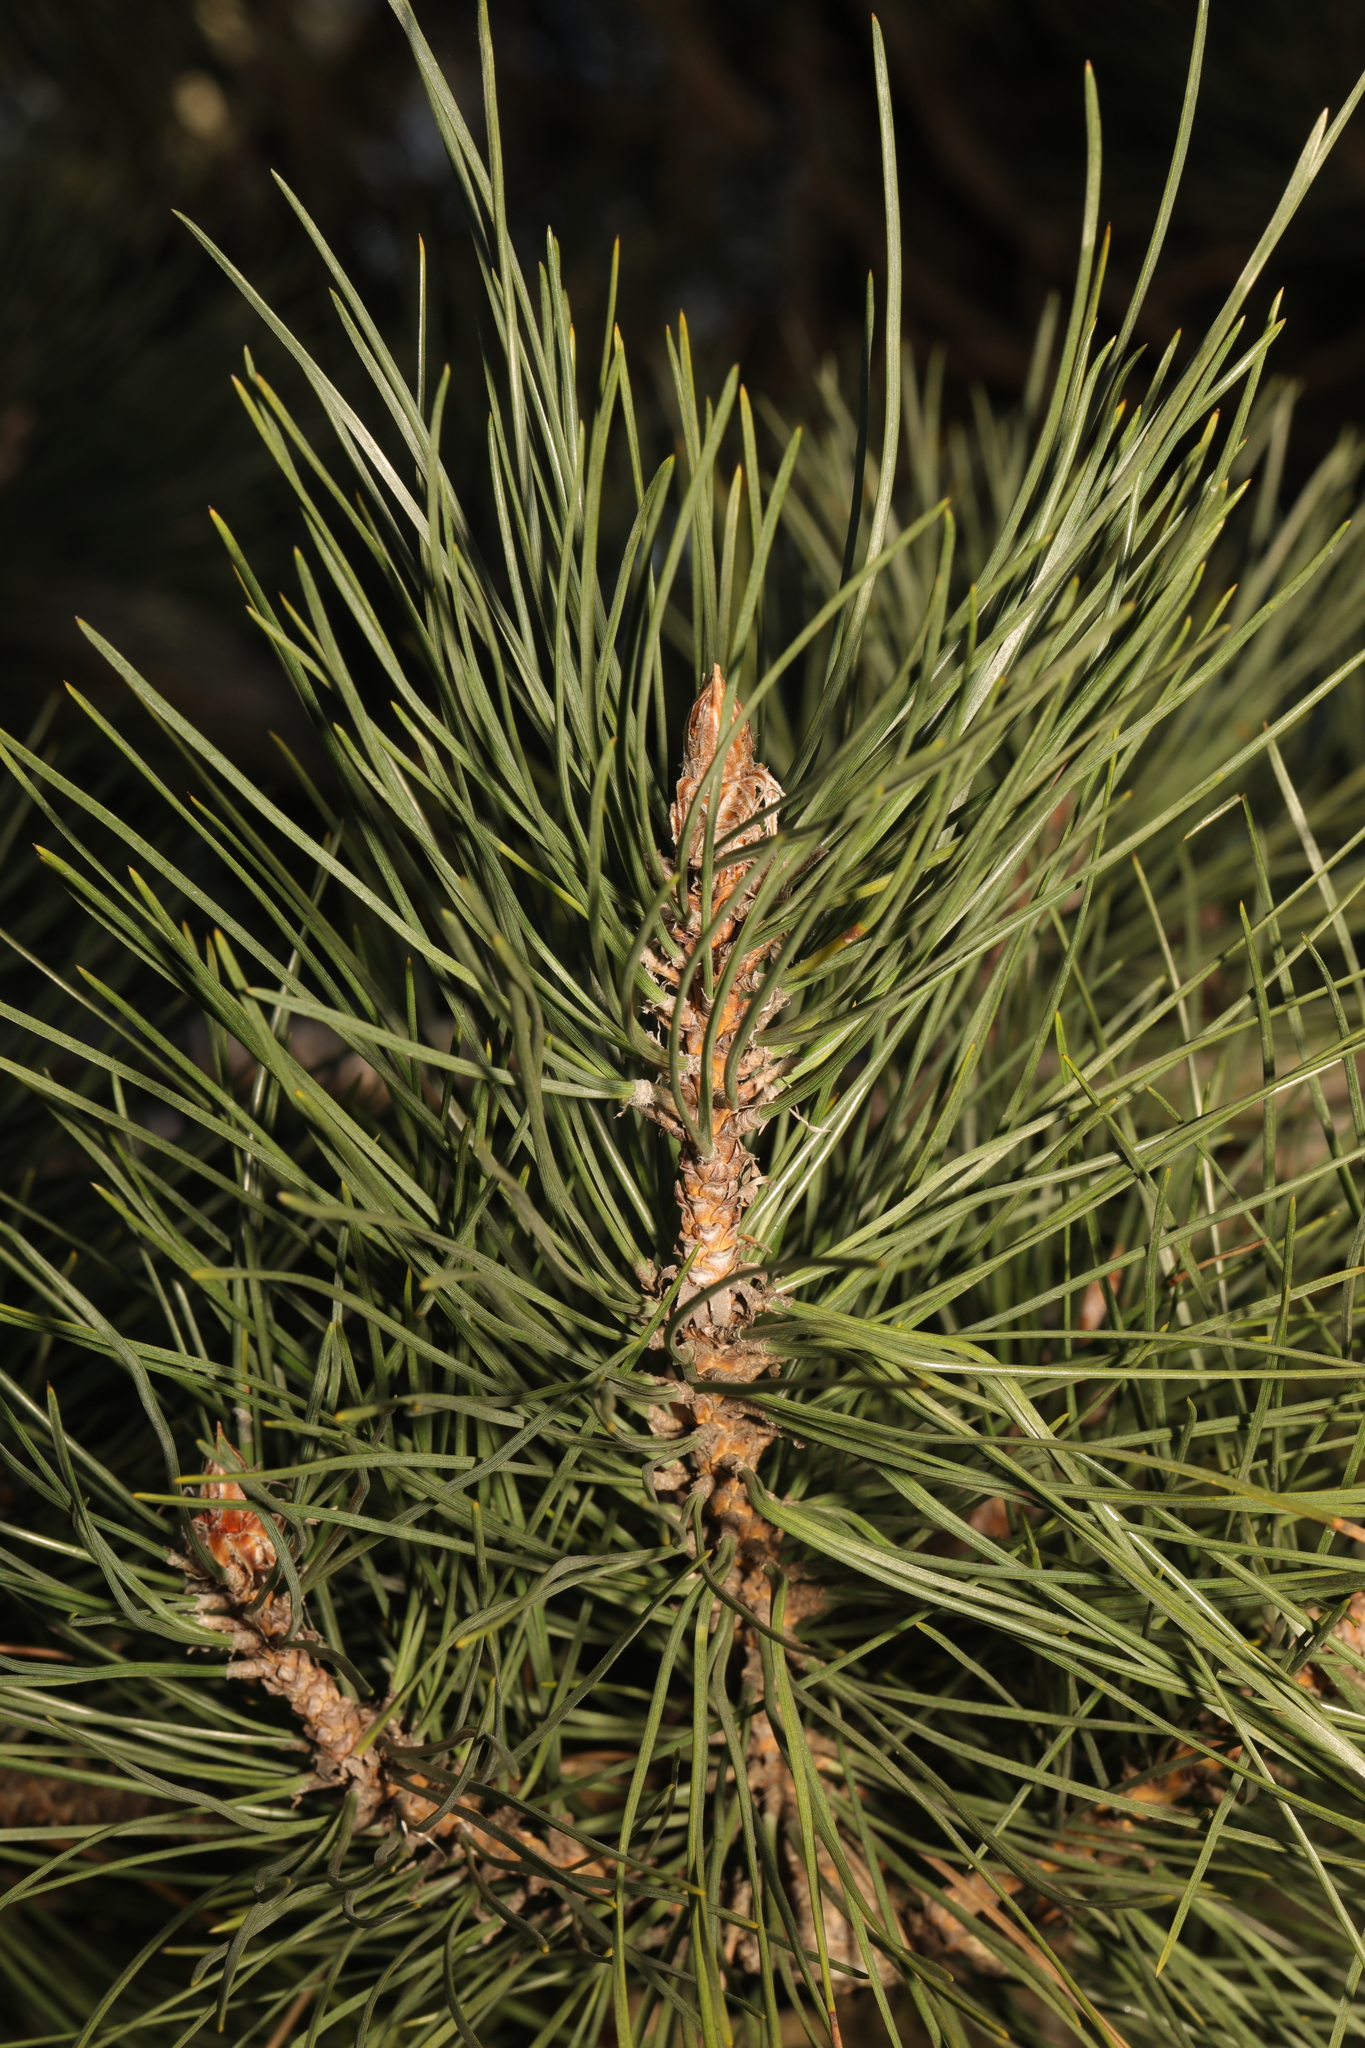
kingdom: Plantae
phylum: Tracheophyta
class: Pinopsida
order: Pinales
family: Pinaceae
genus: Pinus
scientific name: Pinus sylvestris
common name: Scots pine
